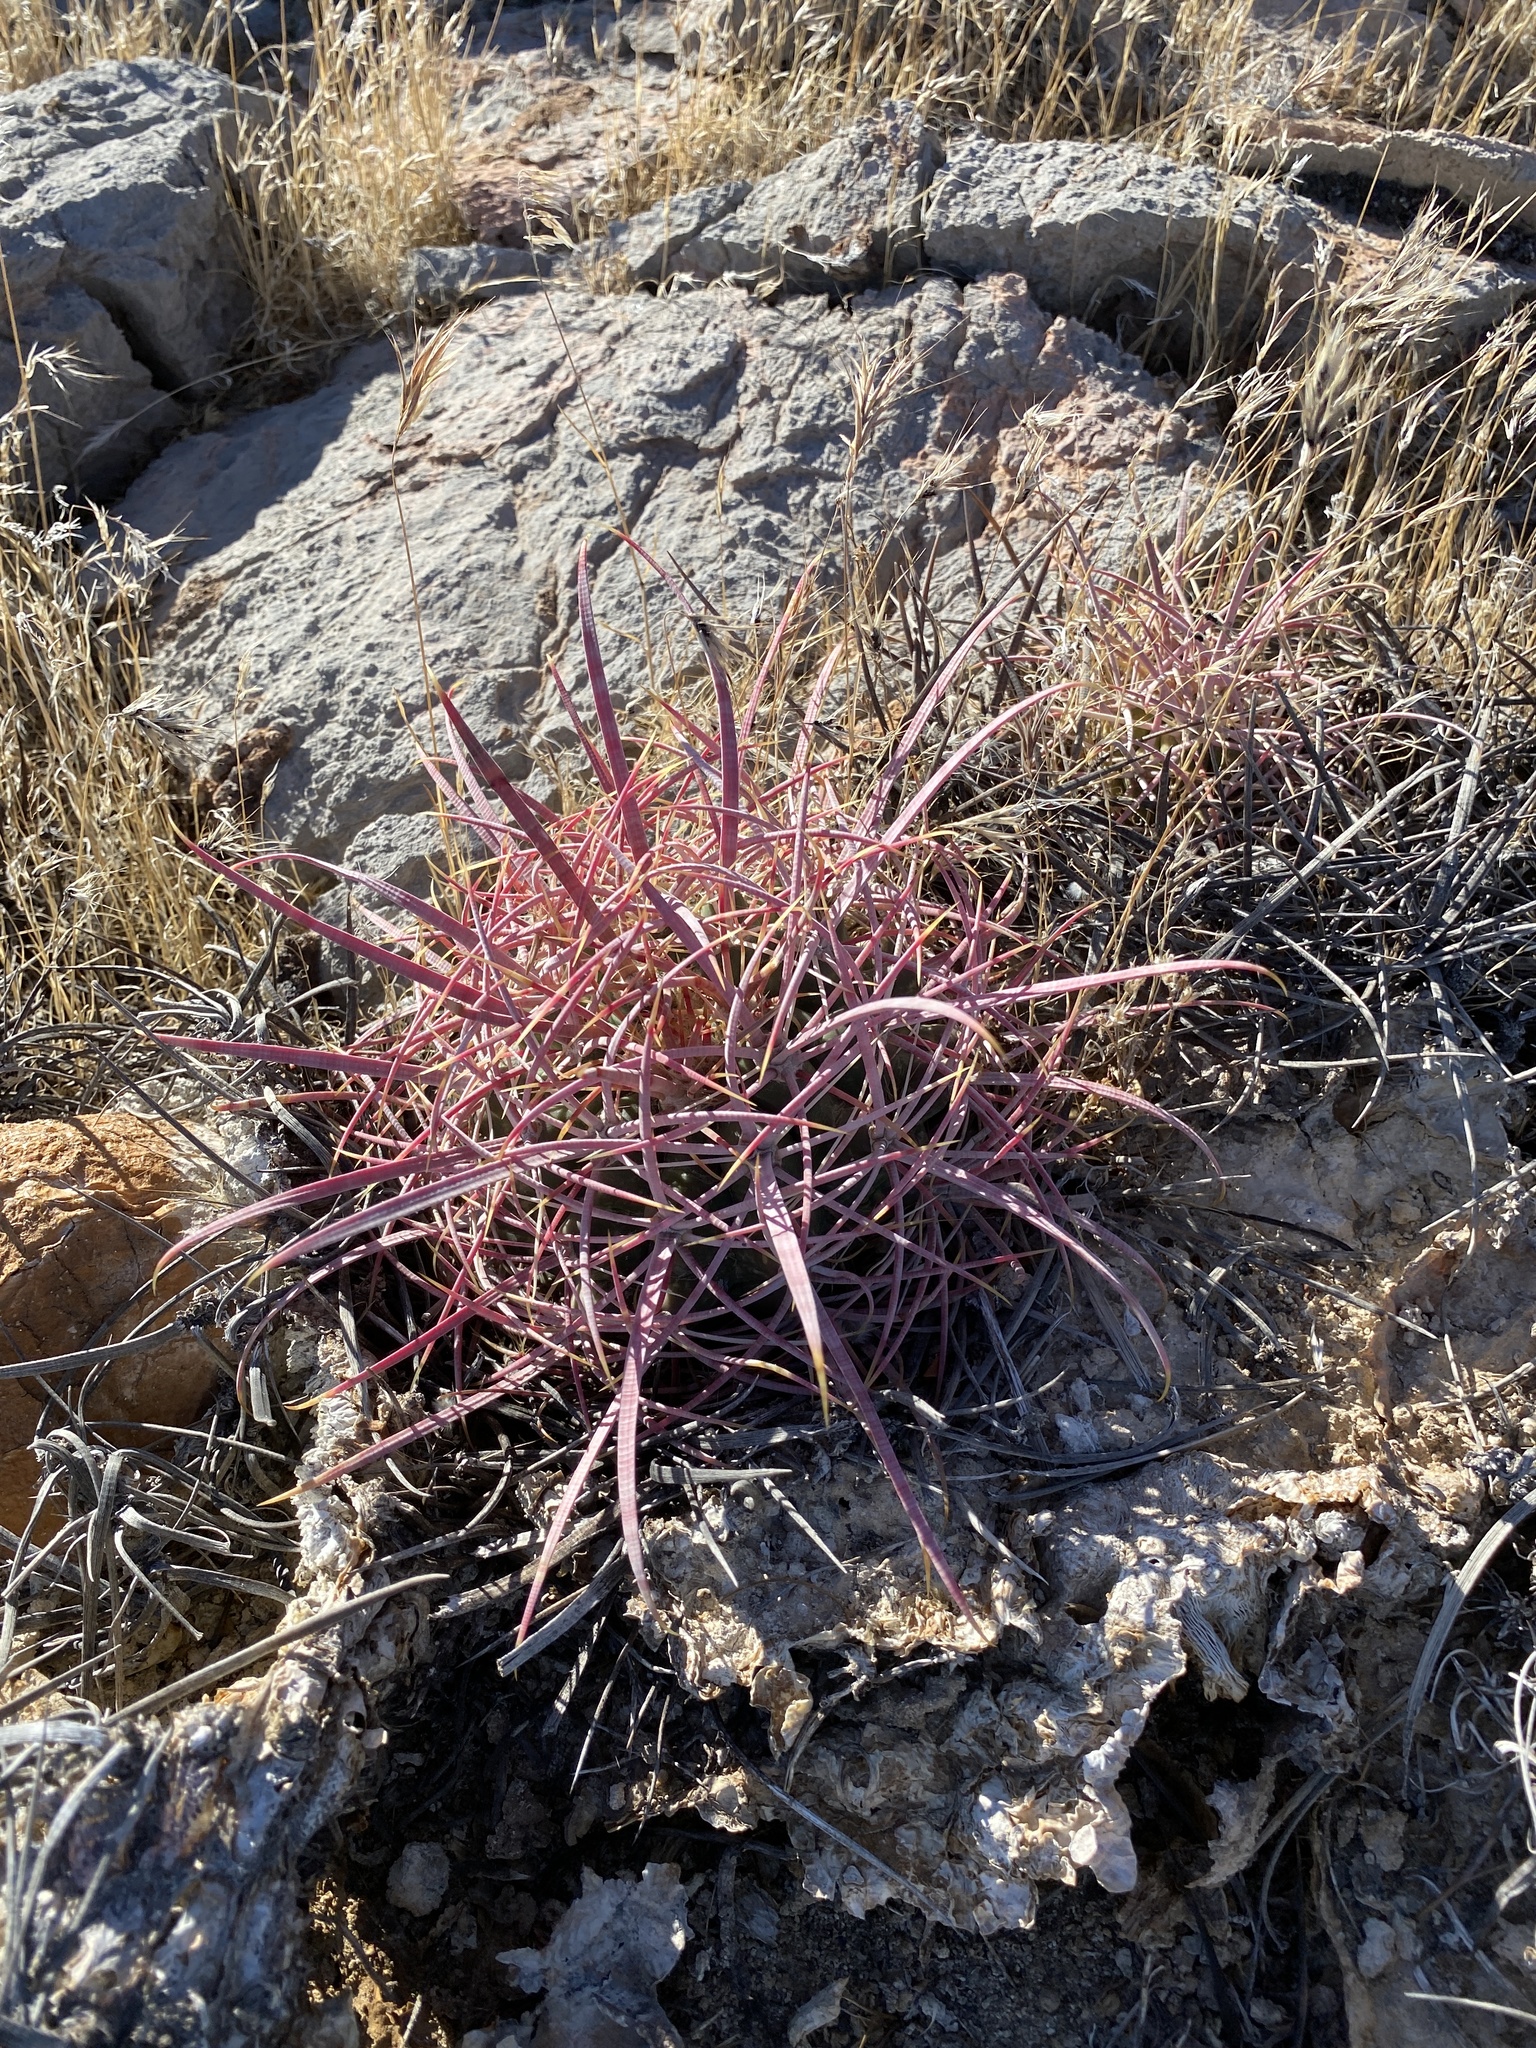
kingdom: Plantae
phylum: Tracheophyta
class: Magnoliopsida
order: Caryophyllales
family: Cactaceae
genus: Ferocactus
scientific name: Ferocactus cylindraceus
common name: California barrel cactus
